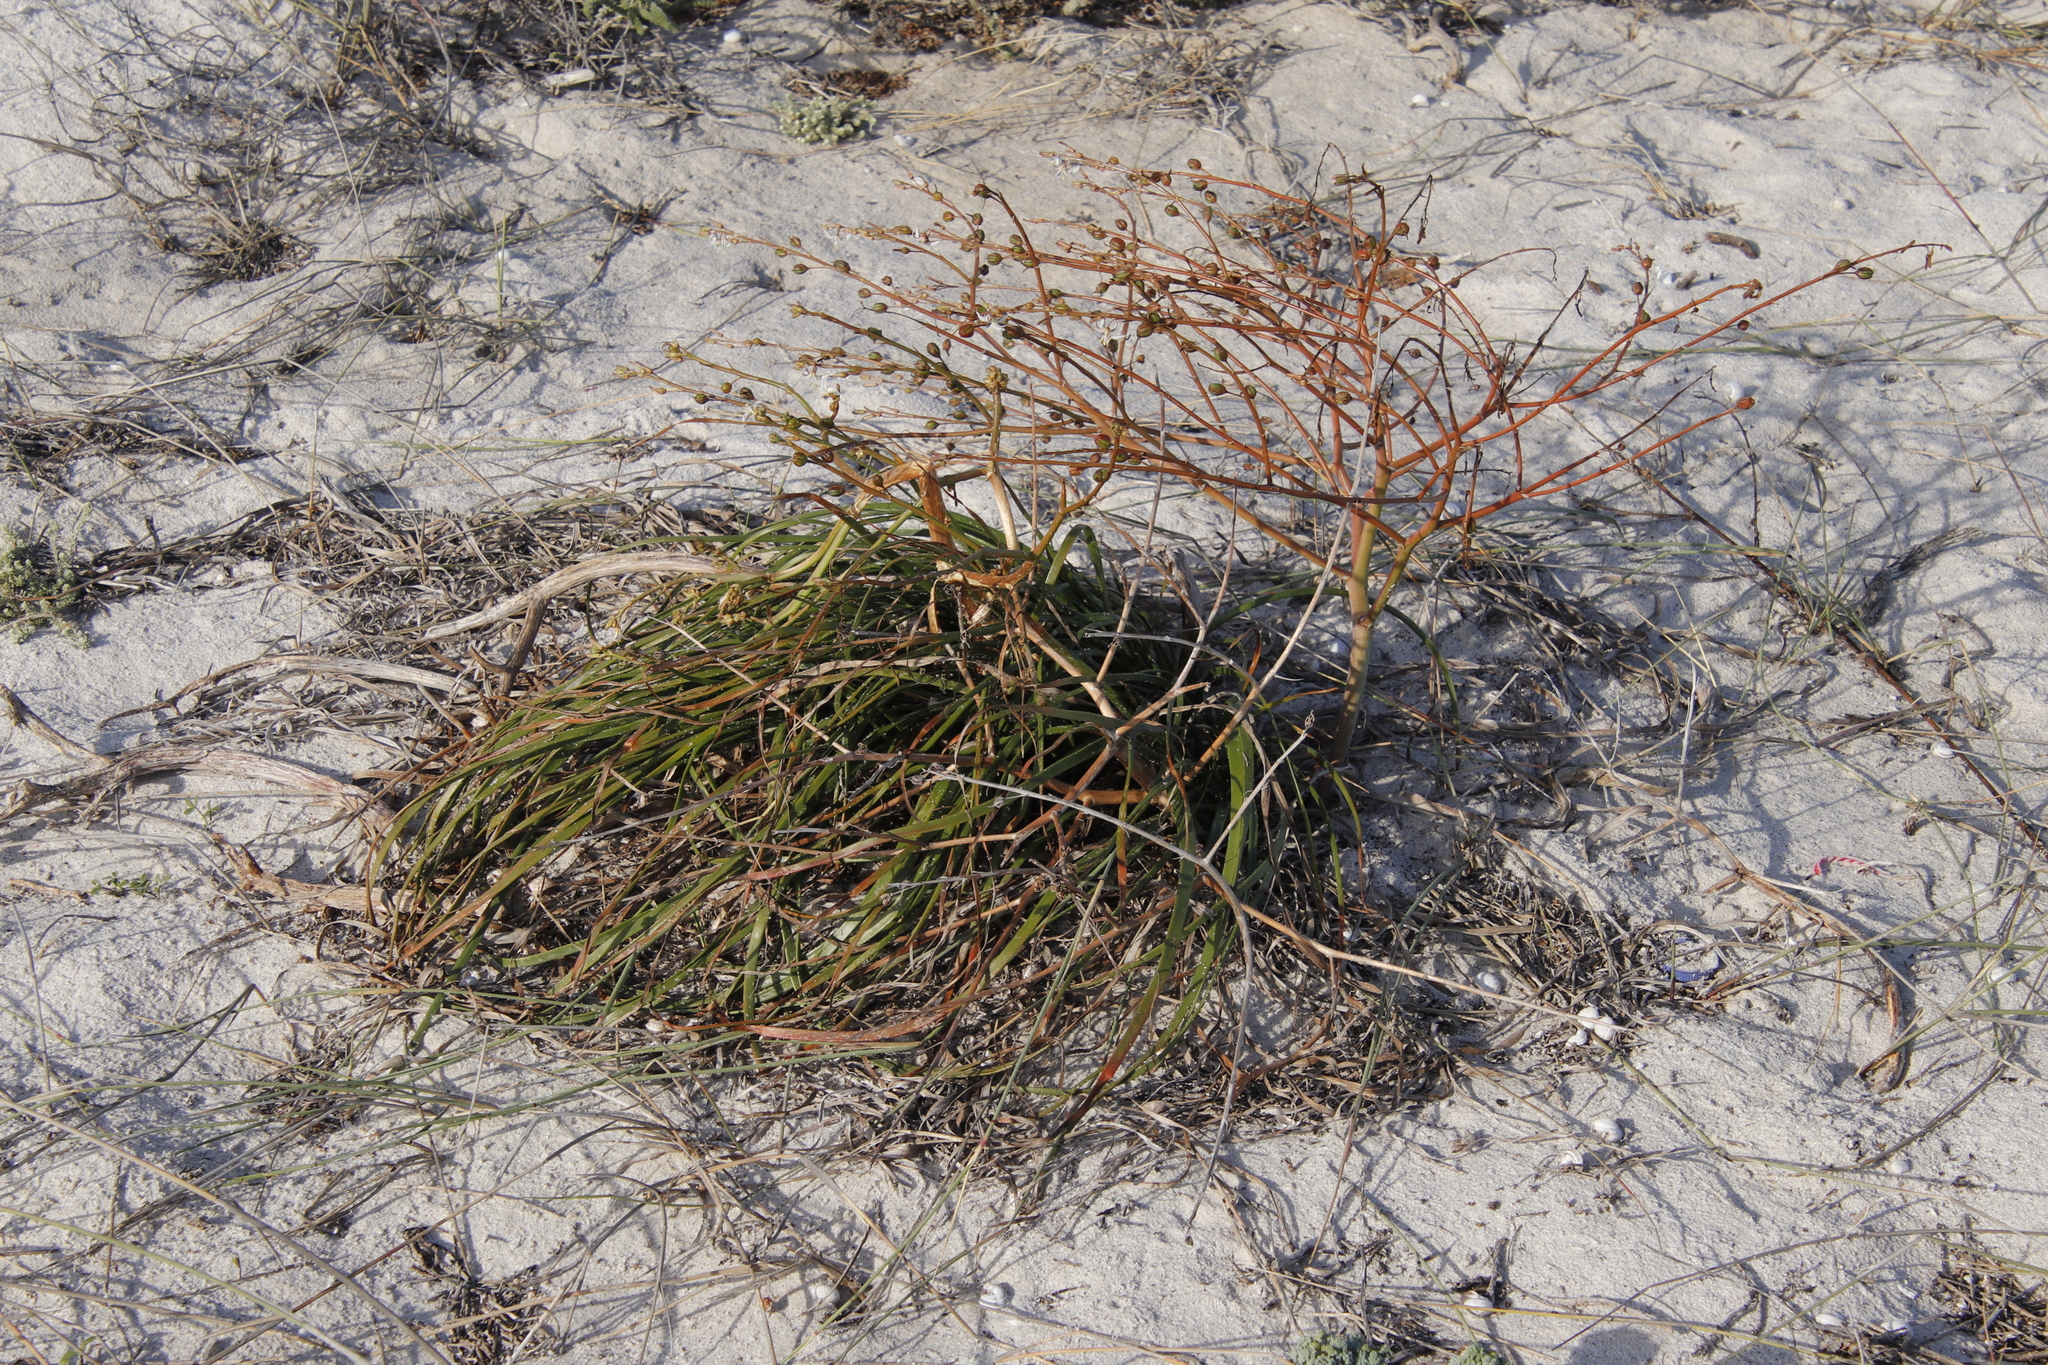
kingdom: Plantae
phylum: Tracheophyta
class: Liliopsida
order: Asparagales
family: Asphodelaceae
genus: Trachyandra
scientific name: Trachyandra divaricata
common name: Dune onionweed
